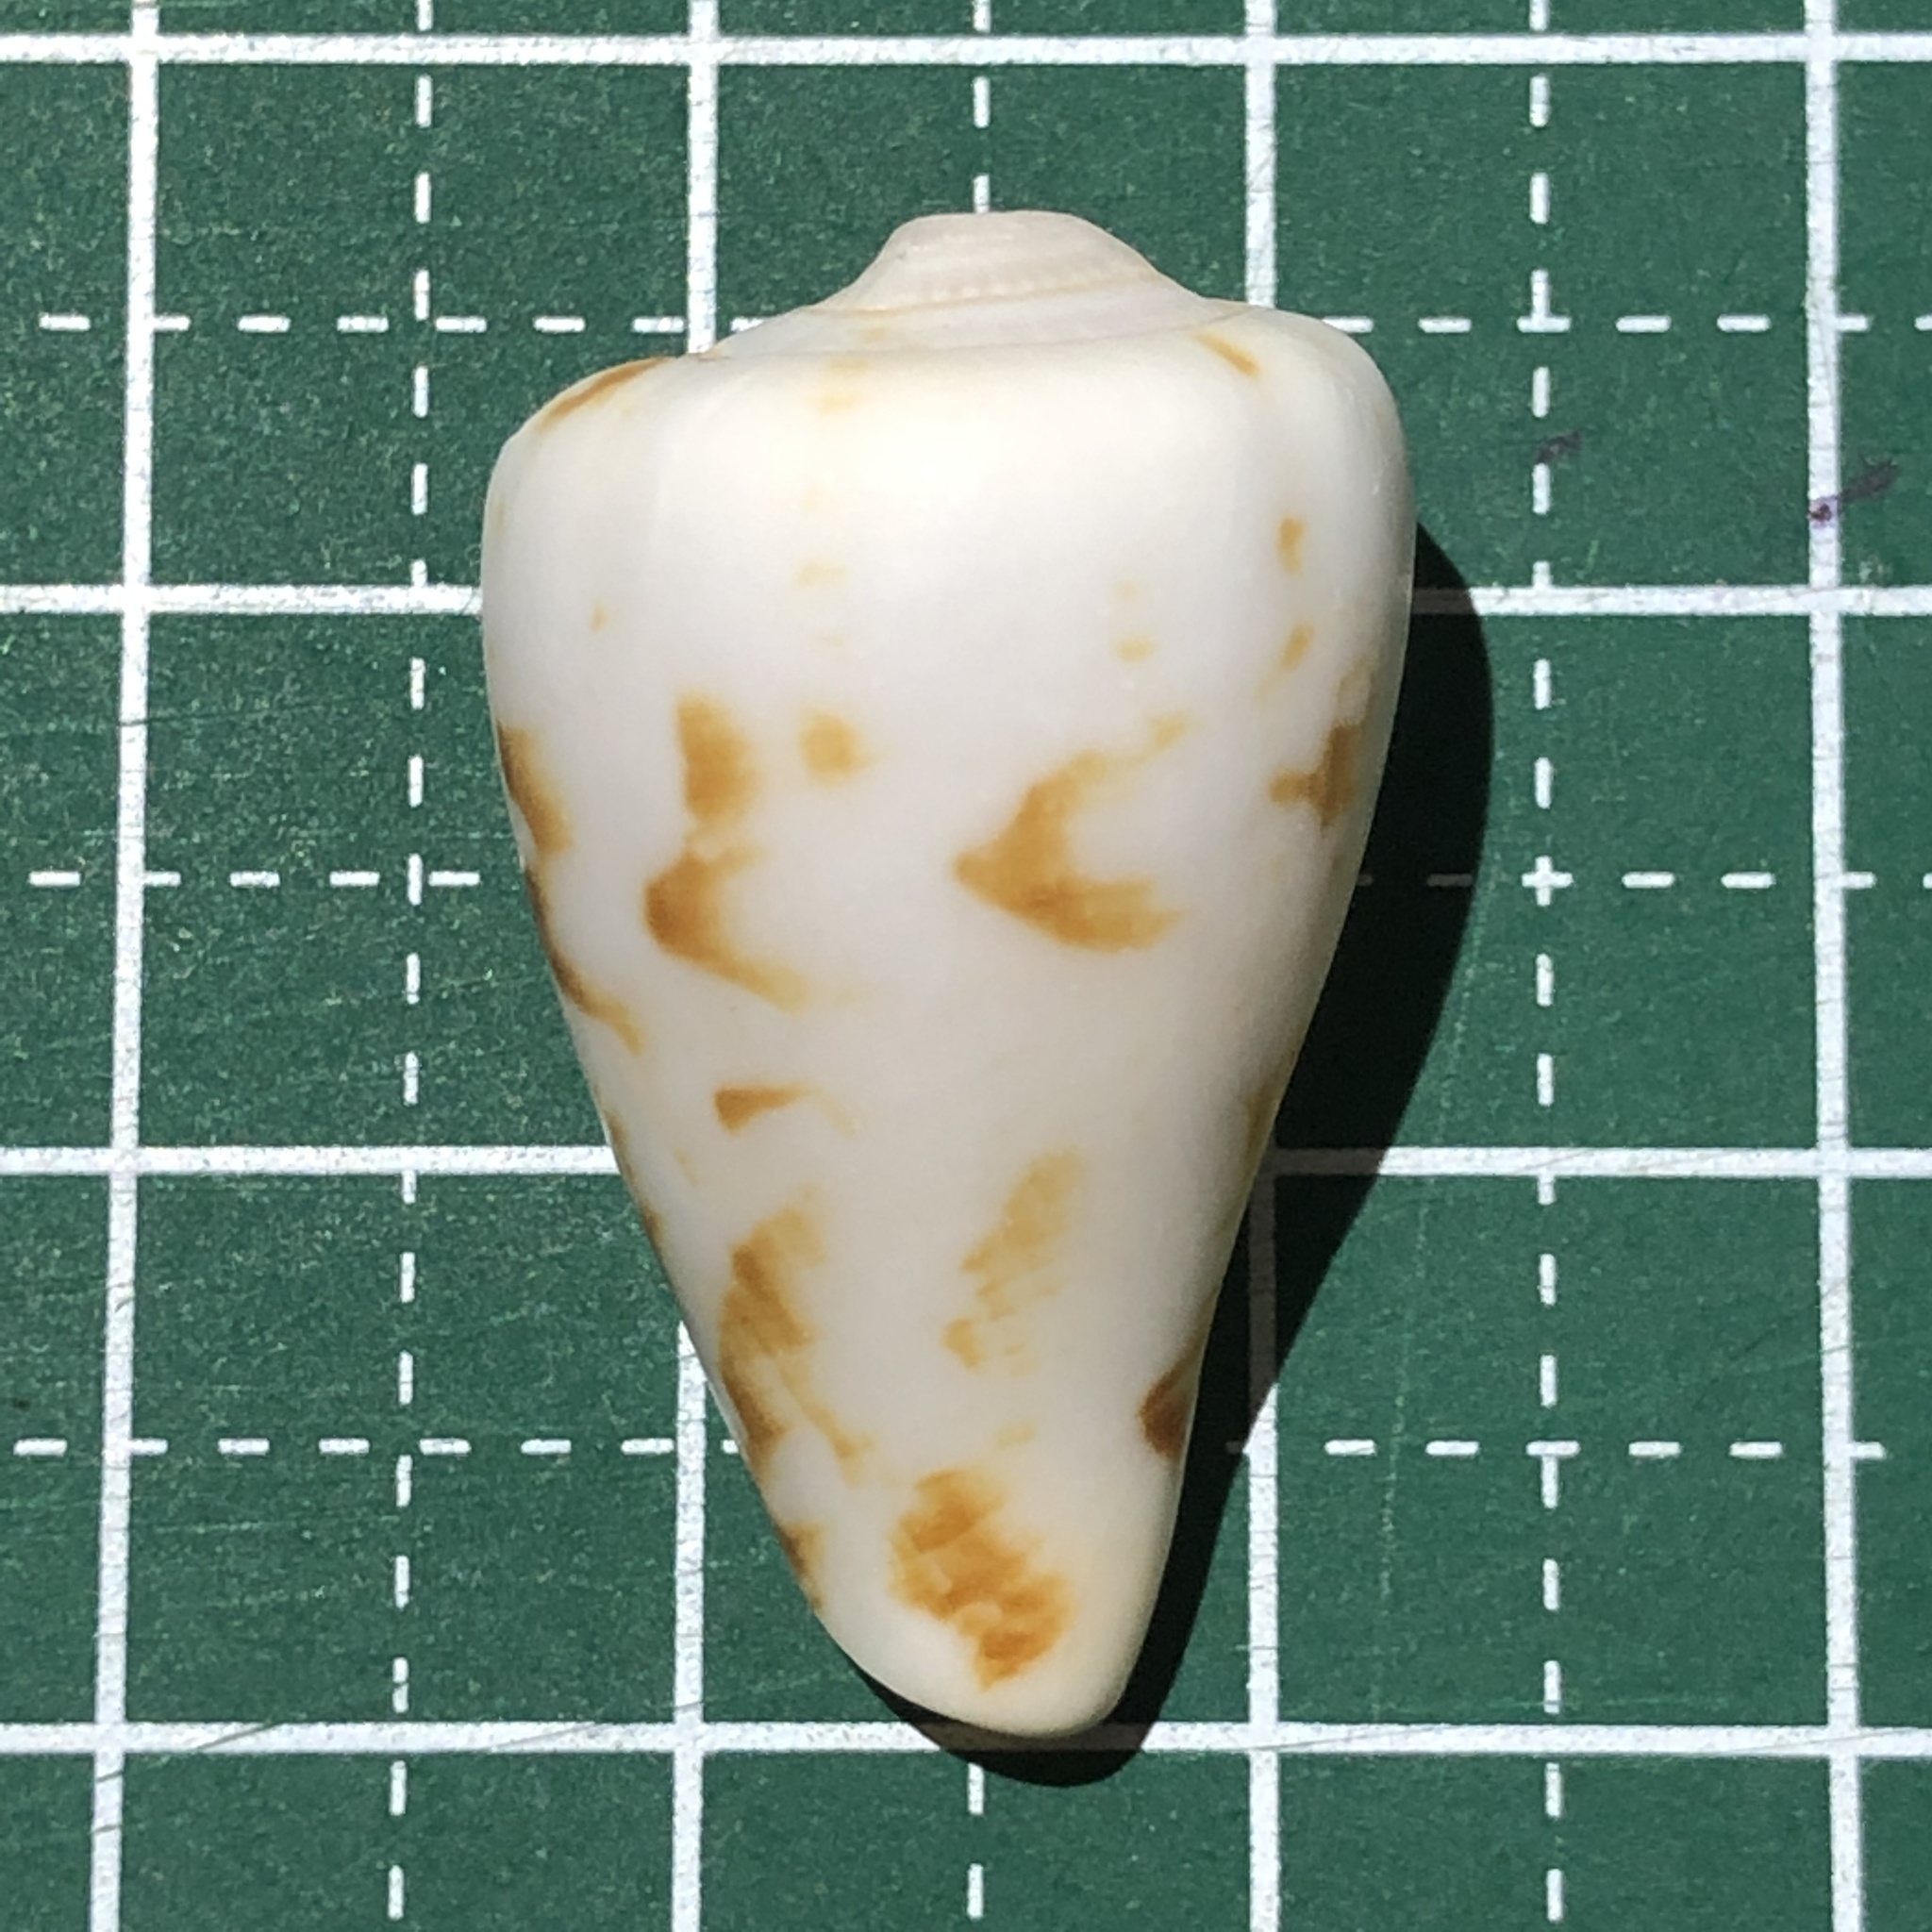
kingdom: Animalia
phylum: Mollusca
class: Gastropoda
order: Littorinimorpha
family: Strombidae
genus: Conomurex
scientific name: Conomurex luhuanus
